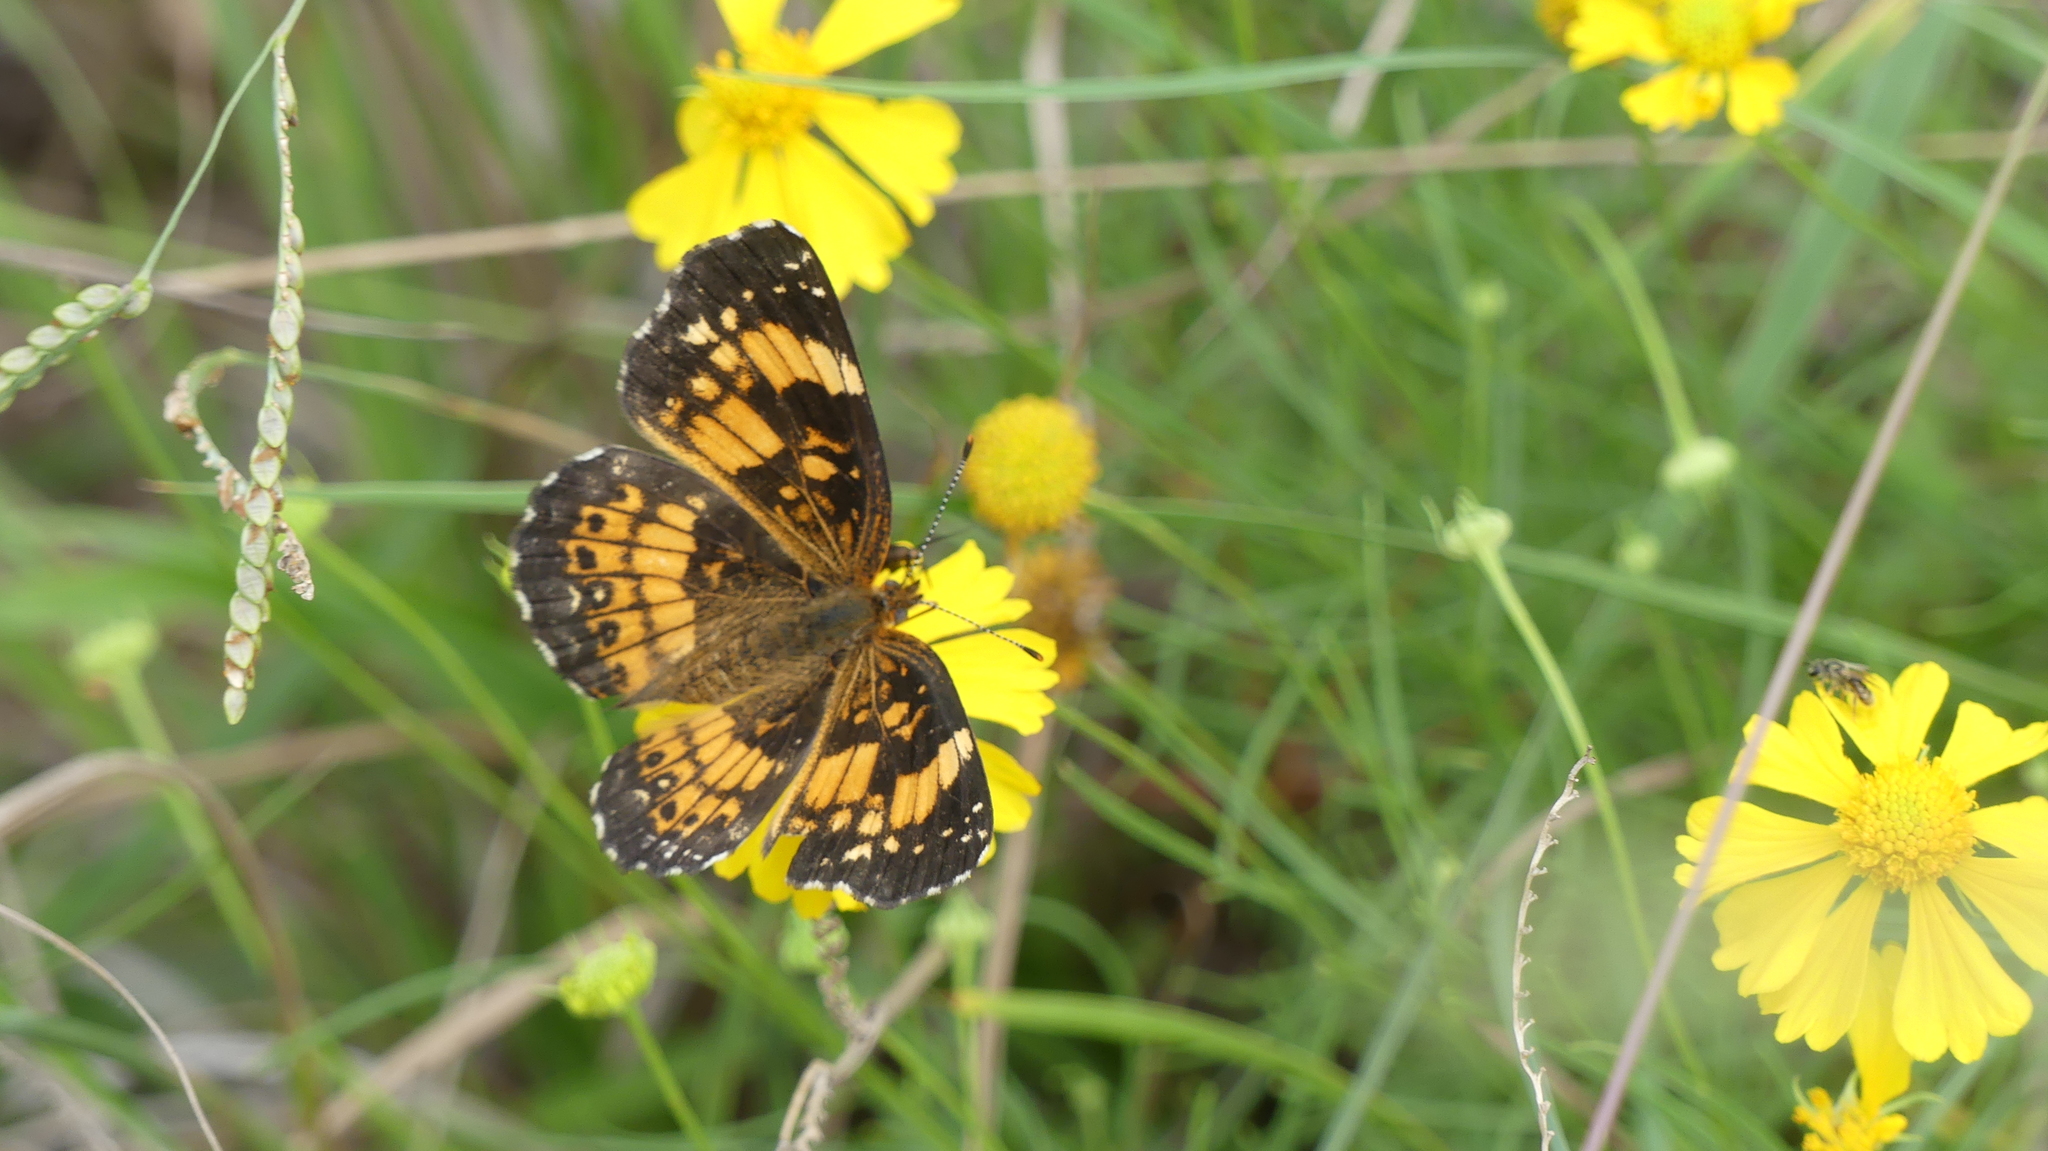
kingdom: Animalia
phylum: Arthropoda
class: Insecta
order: Lepidoptera
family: Nymphalidae
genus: Chlosyne
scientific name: Chlosyne nycteis
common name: Silvery checkerspot
